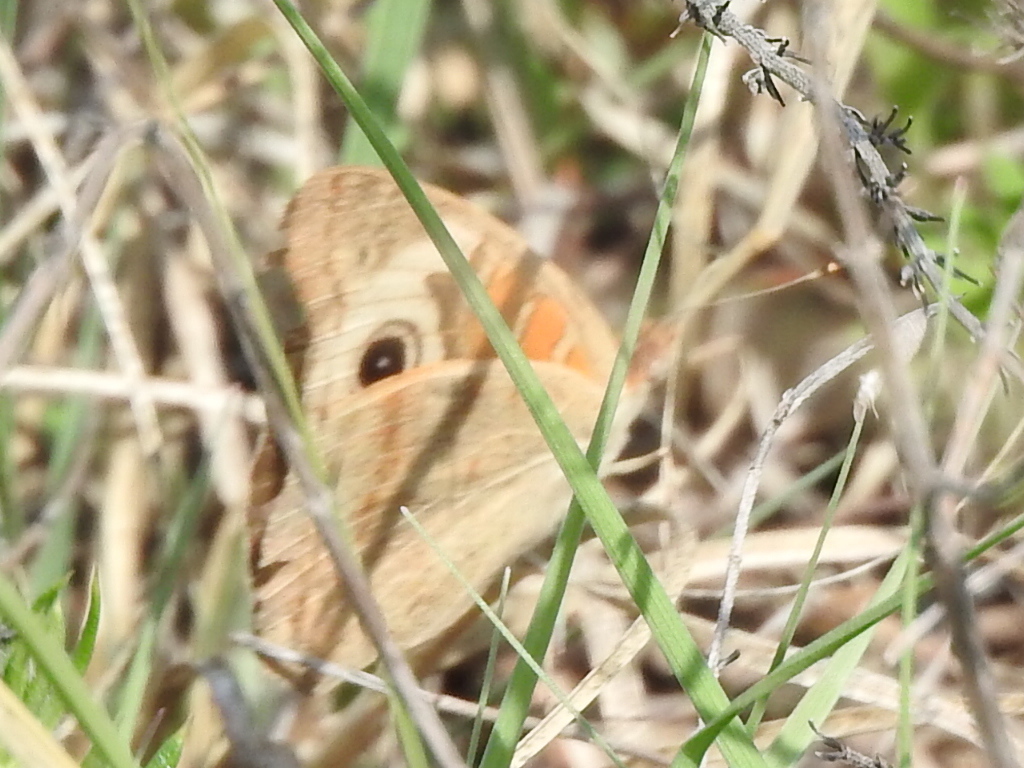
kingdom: Animalia
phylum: Arthropoda
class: Insecta
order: Lepidoptera
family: Nymphalidae
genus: Junonia
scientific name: Junonia coenia
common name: Common buckeye
